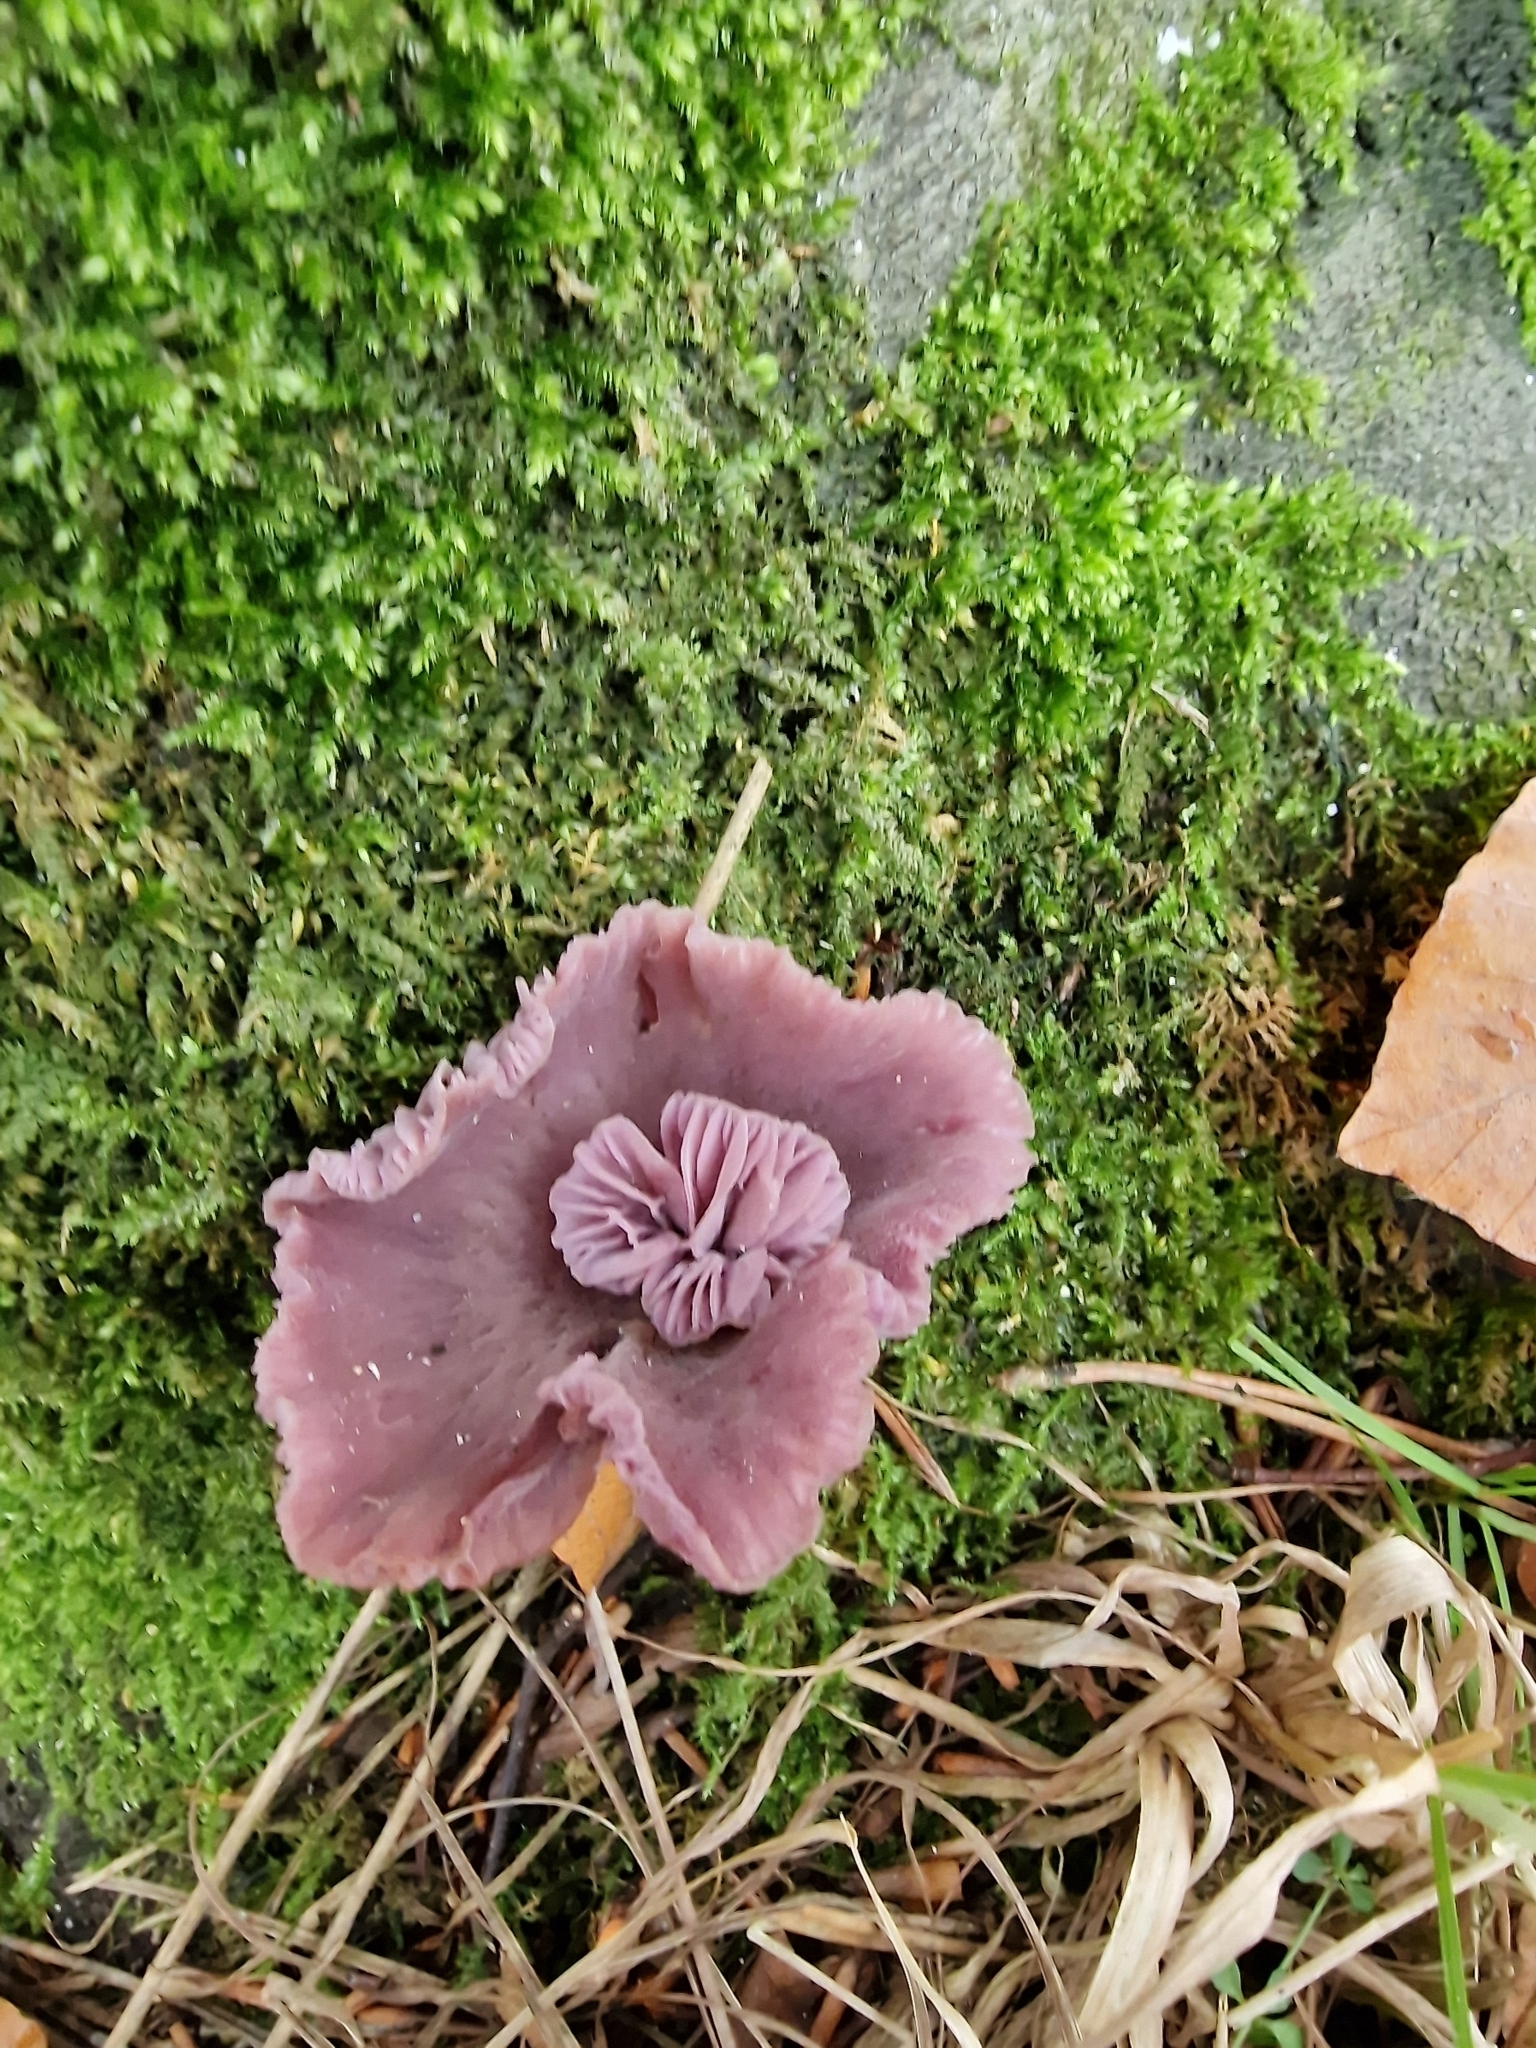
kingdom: Fungi
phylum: Basidiomycota
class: Agaricomycetes
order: Agaricales
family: Hydnangiaceae
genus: Laccaria
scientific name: Laccaria amethystina
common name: Amethyst deceiver
